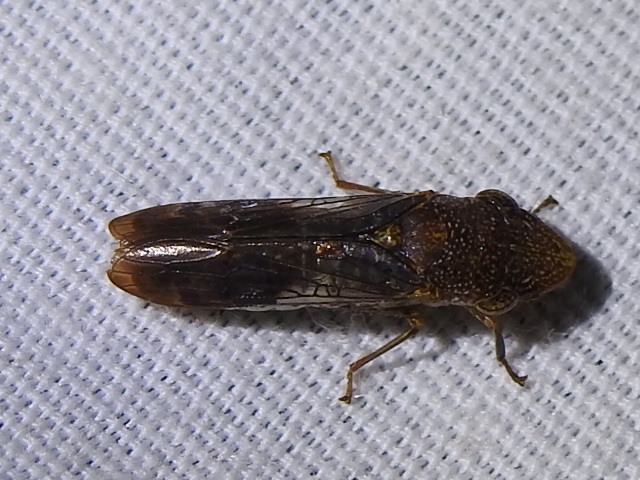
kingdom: Animalia
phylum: Arthropoda
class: Insecta
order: Hemiptera
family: Cicadellidae
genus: Homalodisca
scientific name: Homalodisca vitripennis
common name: Glassy-winged sharpshooter
